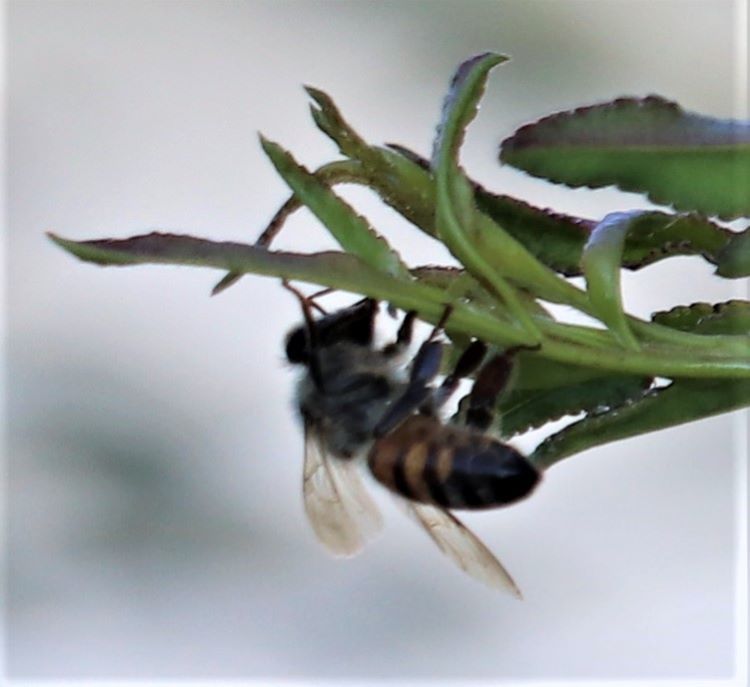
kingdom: Animalia
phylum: Arthropoda
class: Insecta
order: Hymenoptera
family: Apidae
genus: Apis
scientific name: Apis mellifera
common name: Honey bee
